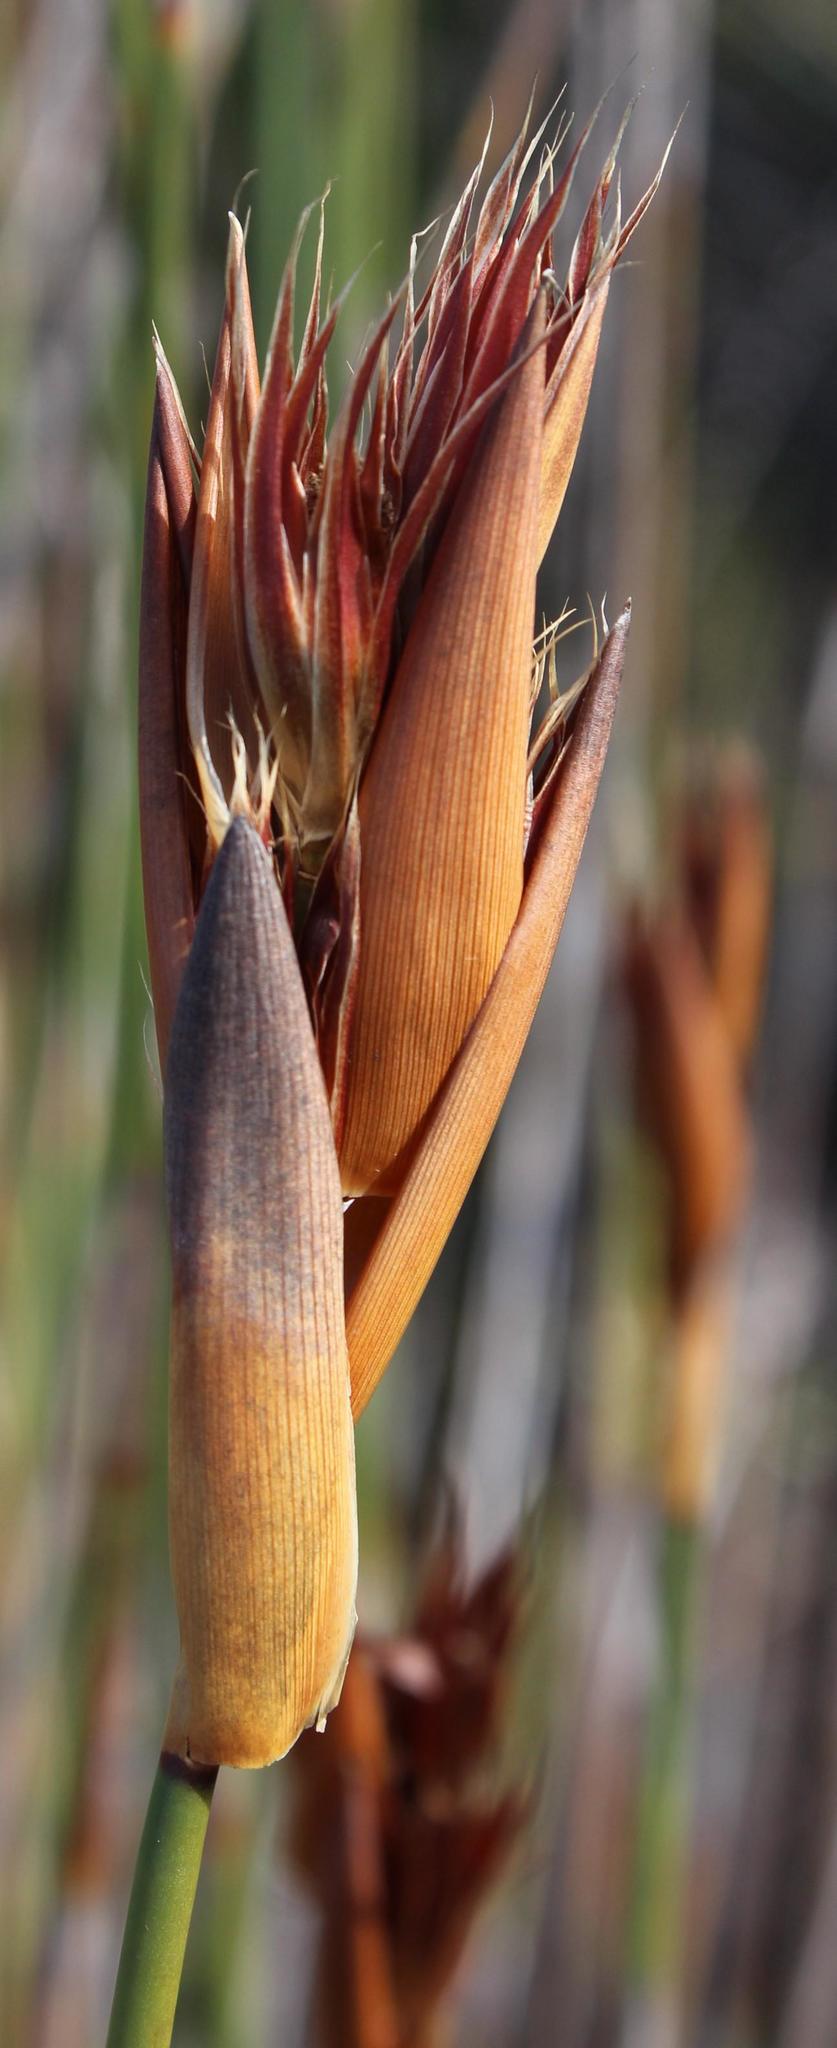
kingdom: Plantae
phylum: Tracheophyta
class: Liliopsida
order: Poales
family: Restionaceae
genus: Ceratocaryum
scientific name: Ceratocaryum argenteum
